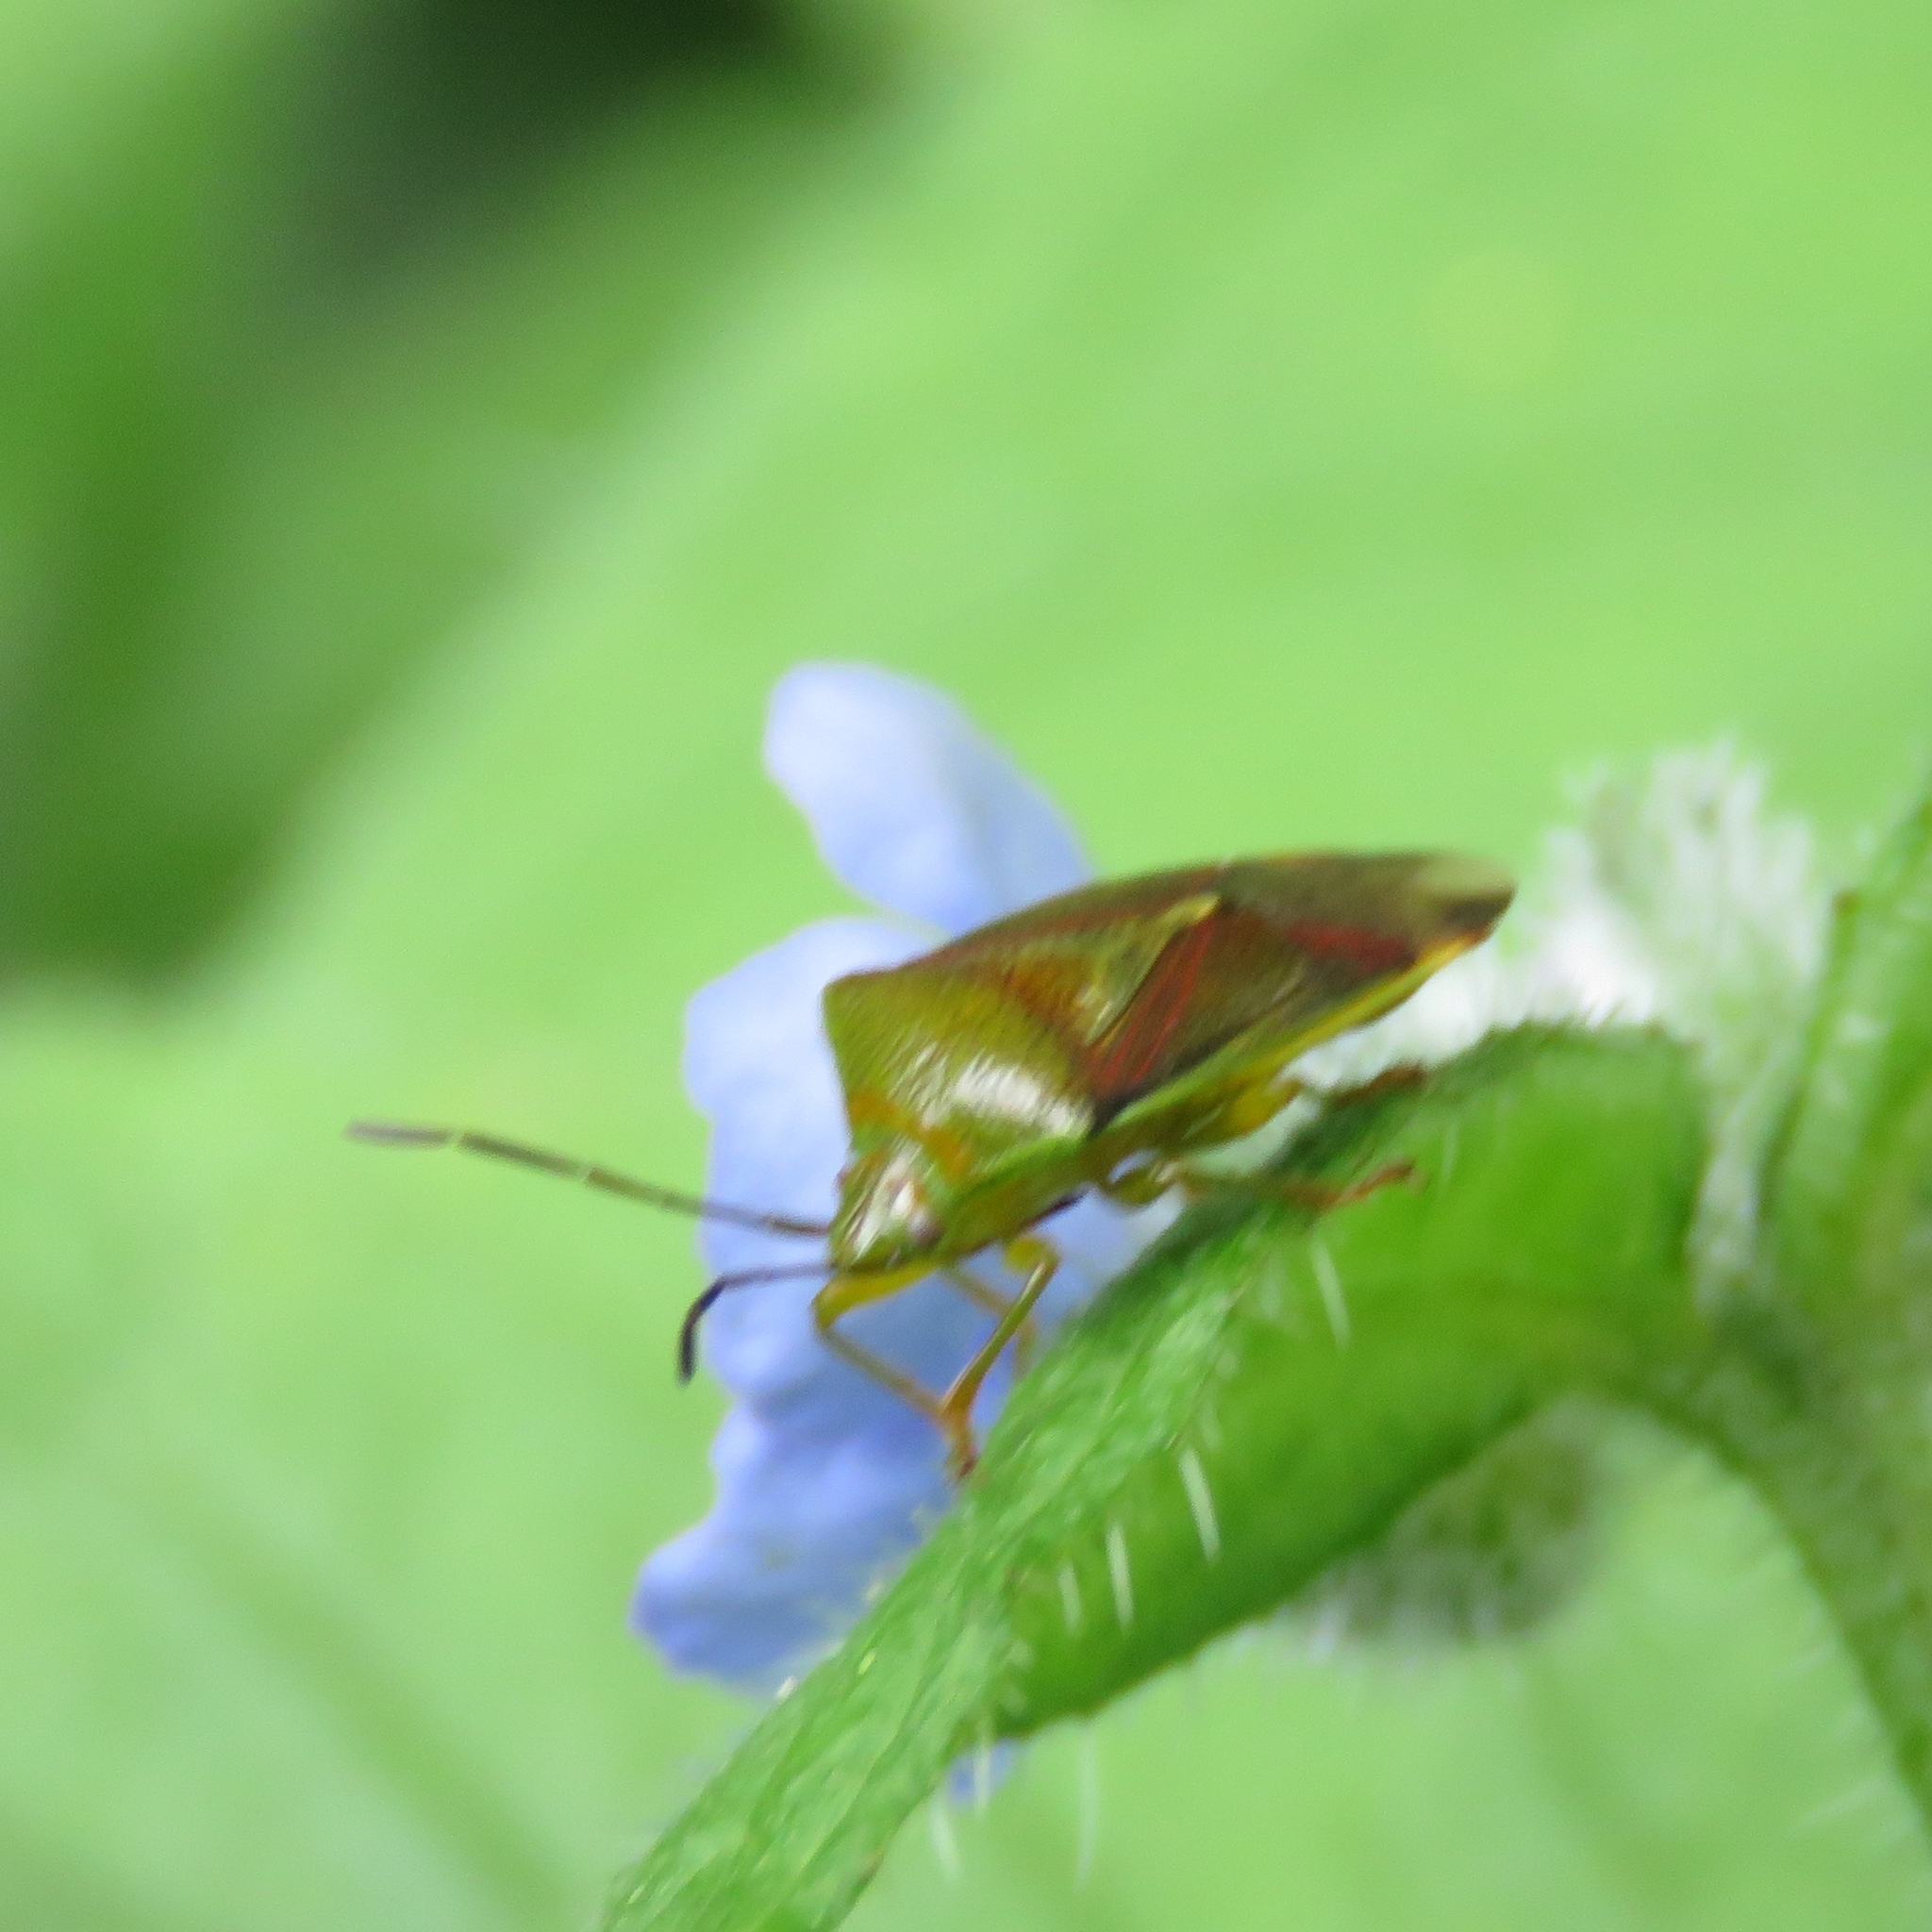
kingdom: Animalia
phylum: Arthropoda
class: Insecta
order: Hemiptera
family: Acanthosomatidae
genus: Elasmostethus
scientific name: Elasmostethus interstinctus
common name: Birch shieldbug
